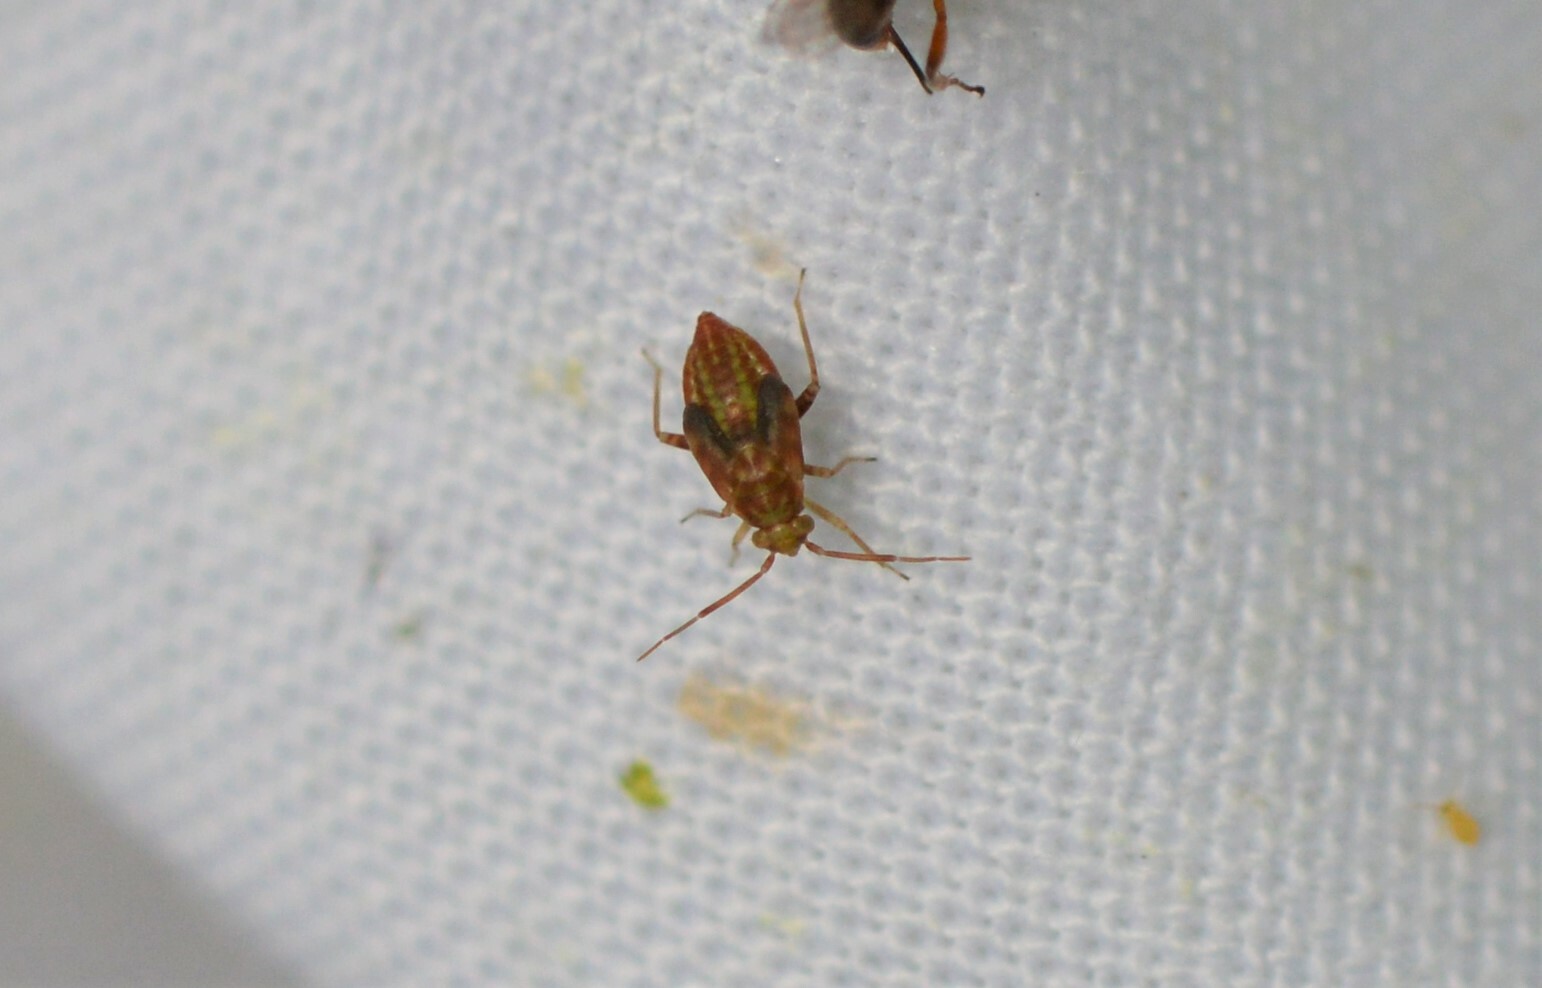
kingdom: Animalia
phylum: Arthropoda
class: Insecta
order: Hemiptera
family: Miridae
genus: Orthops
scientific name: Orthops campestris
